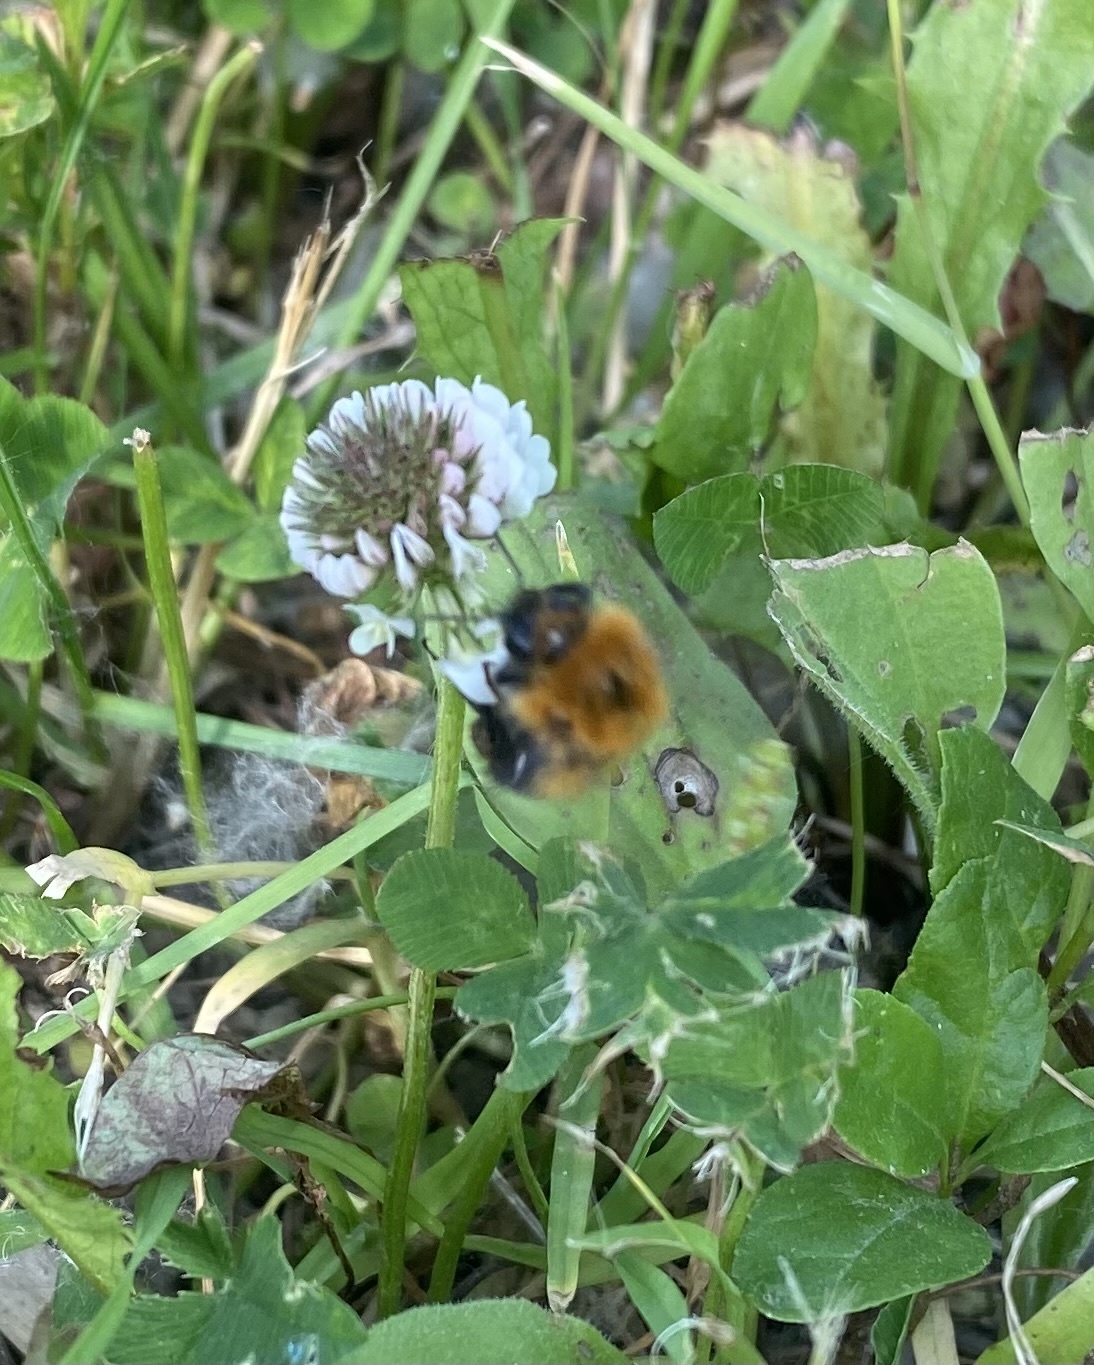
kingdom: Animalia
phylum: Arthropoda
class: Insecta
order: Hymenoptera
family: Apidae
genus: Bombus
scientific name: Bombus hypnorum
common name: New garden bumblebee
